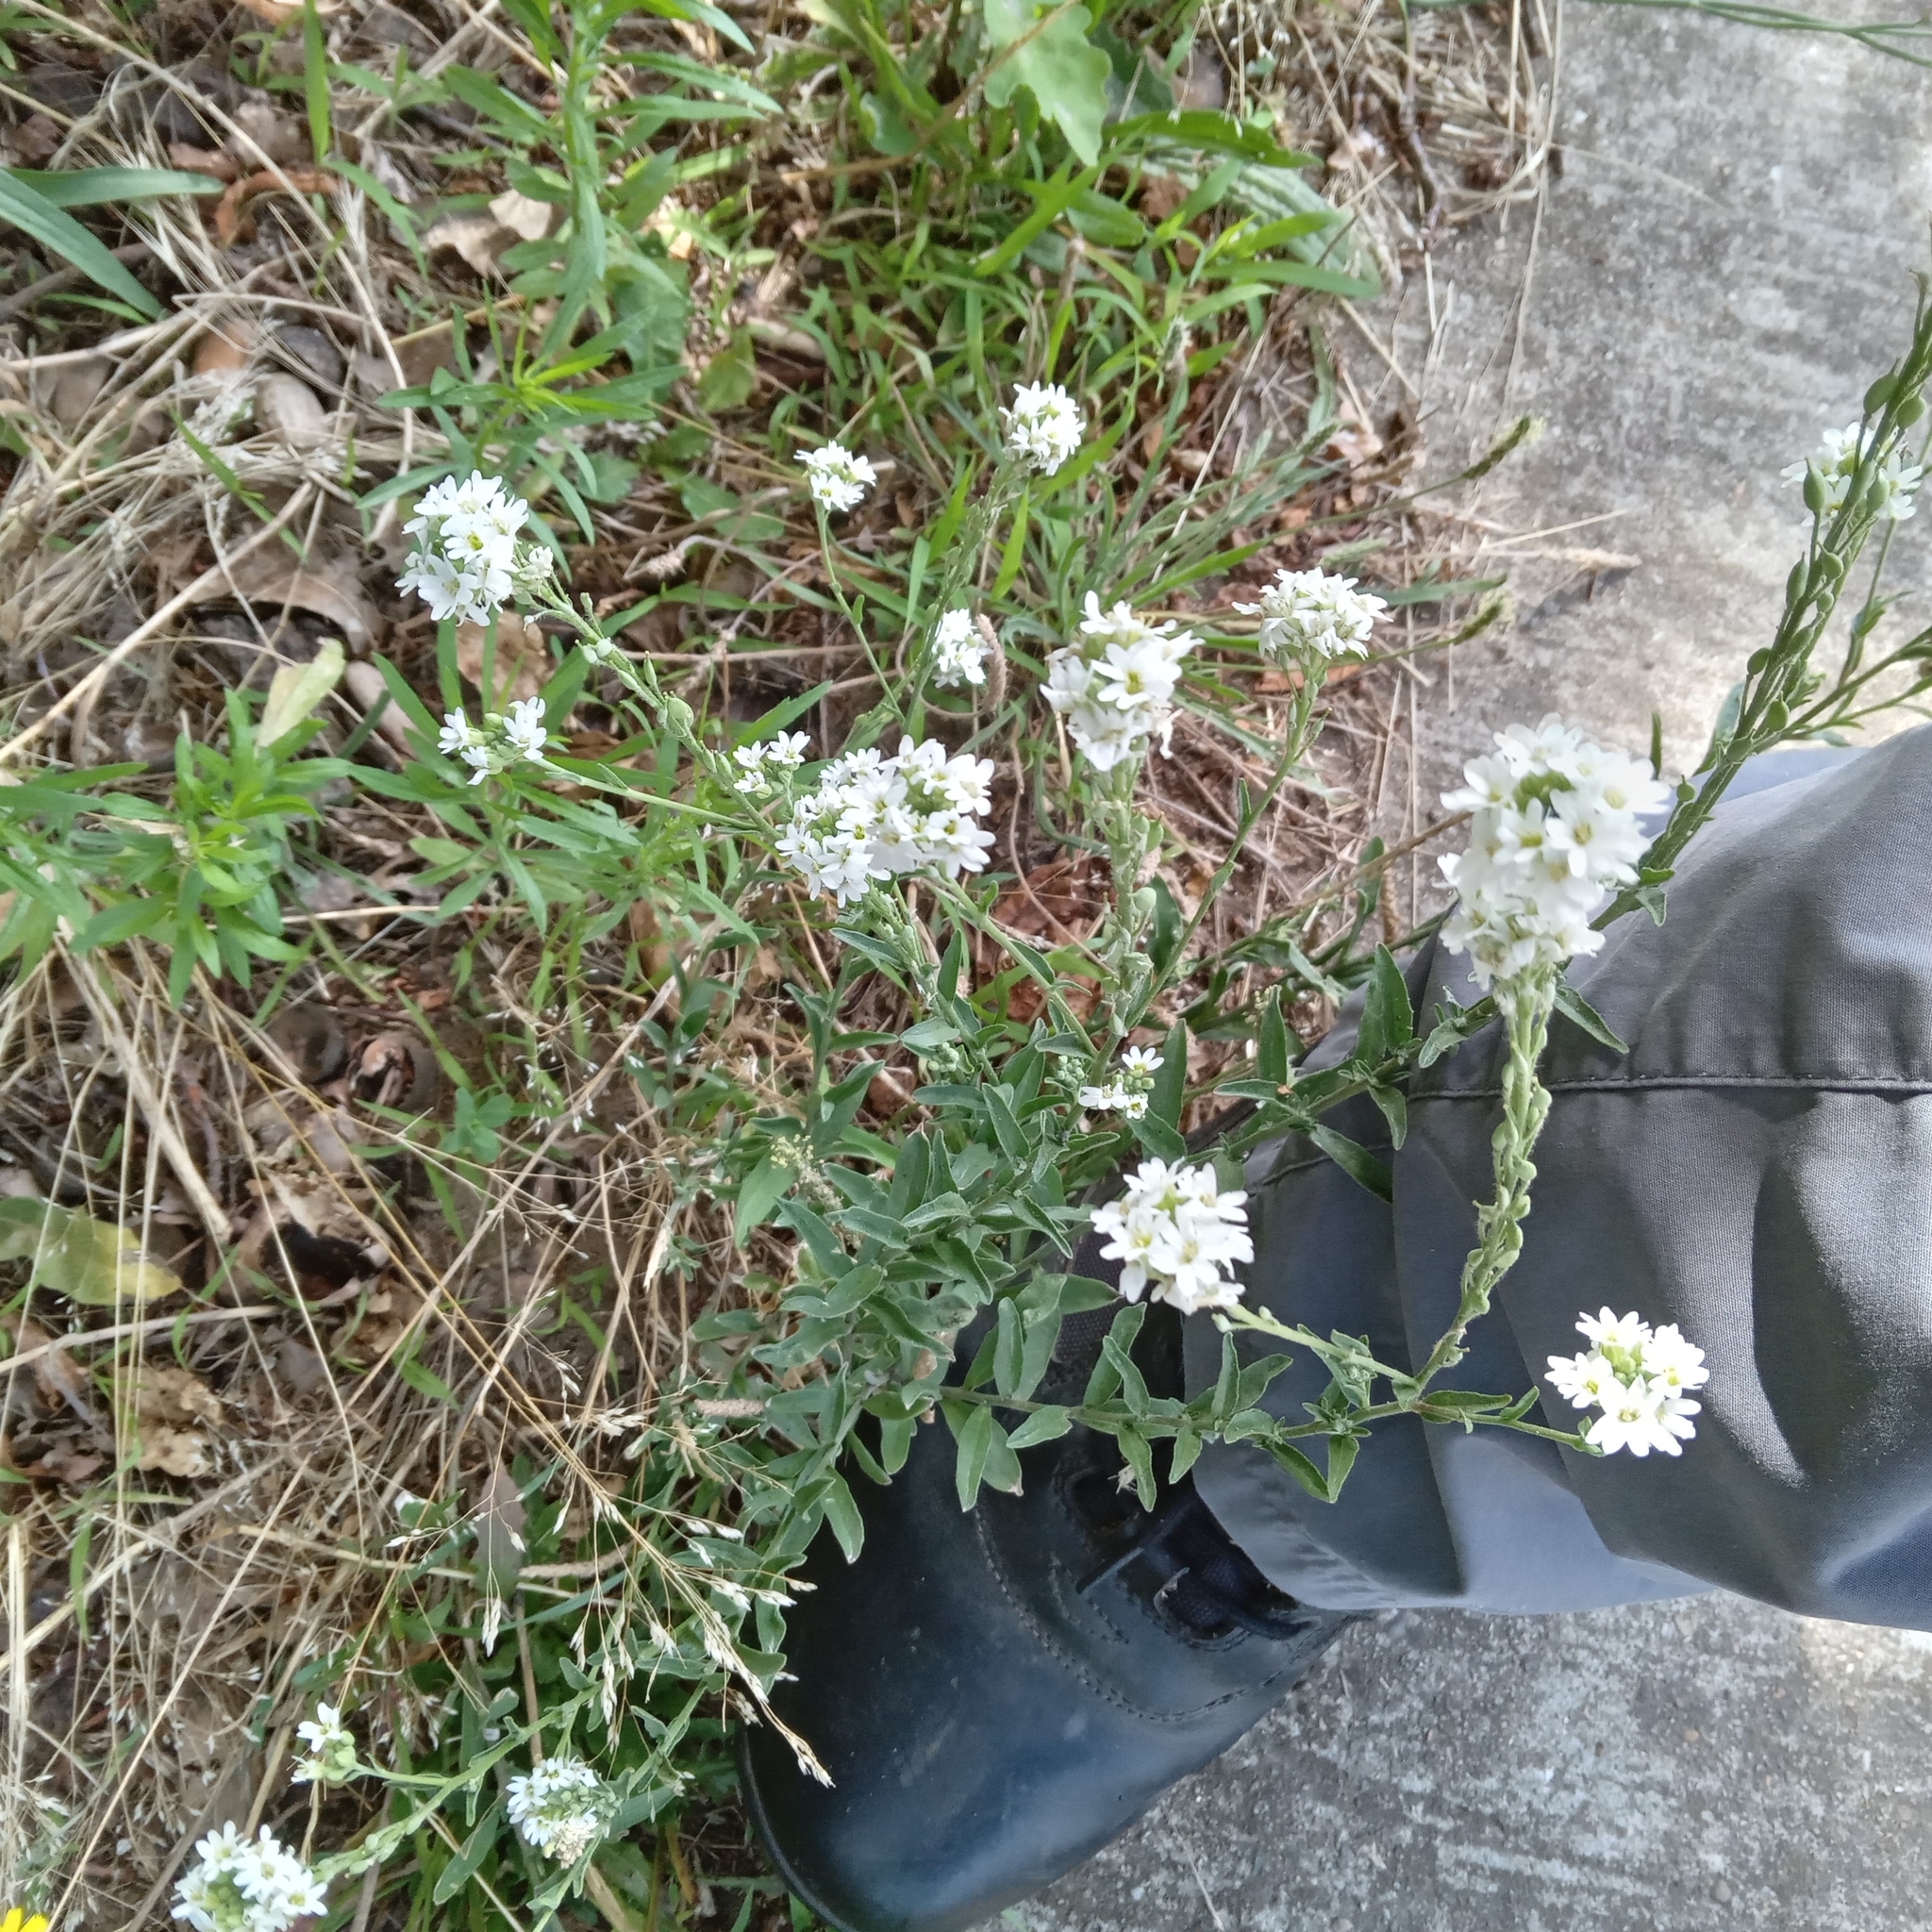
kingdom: Plantae
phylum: Tracheophyta
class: Magnoliopsida
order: Brassicales
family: Brassicaceae
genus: Berteroa
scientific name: Berteroa incana
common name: Hoary alison
